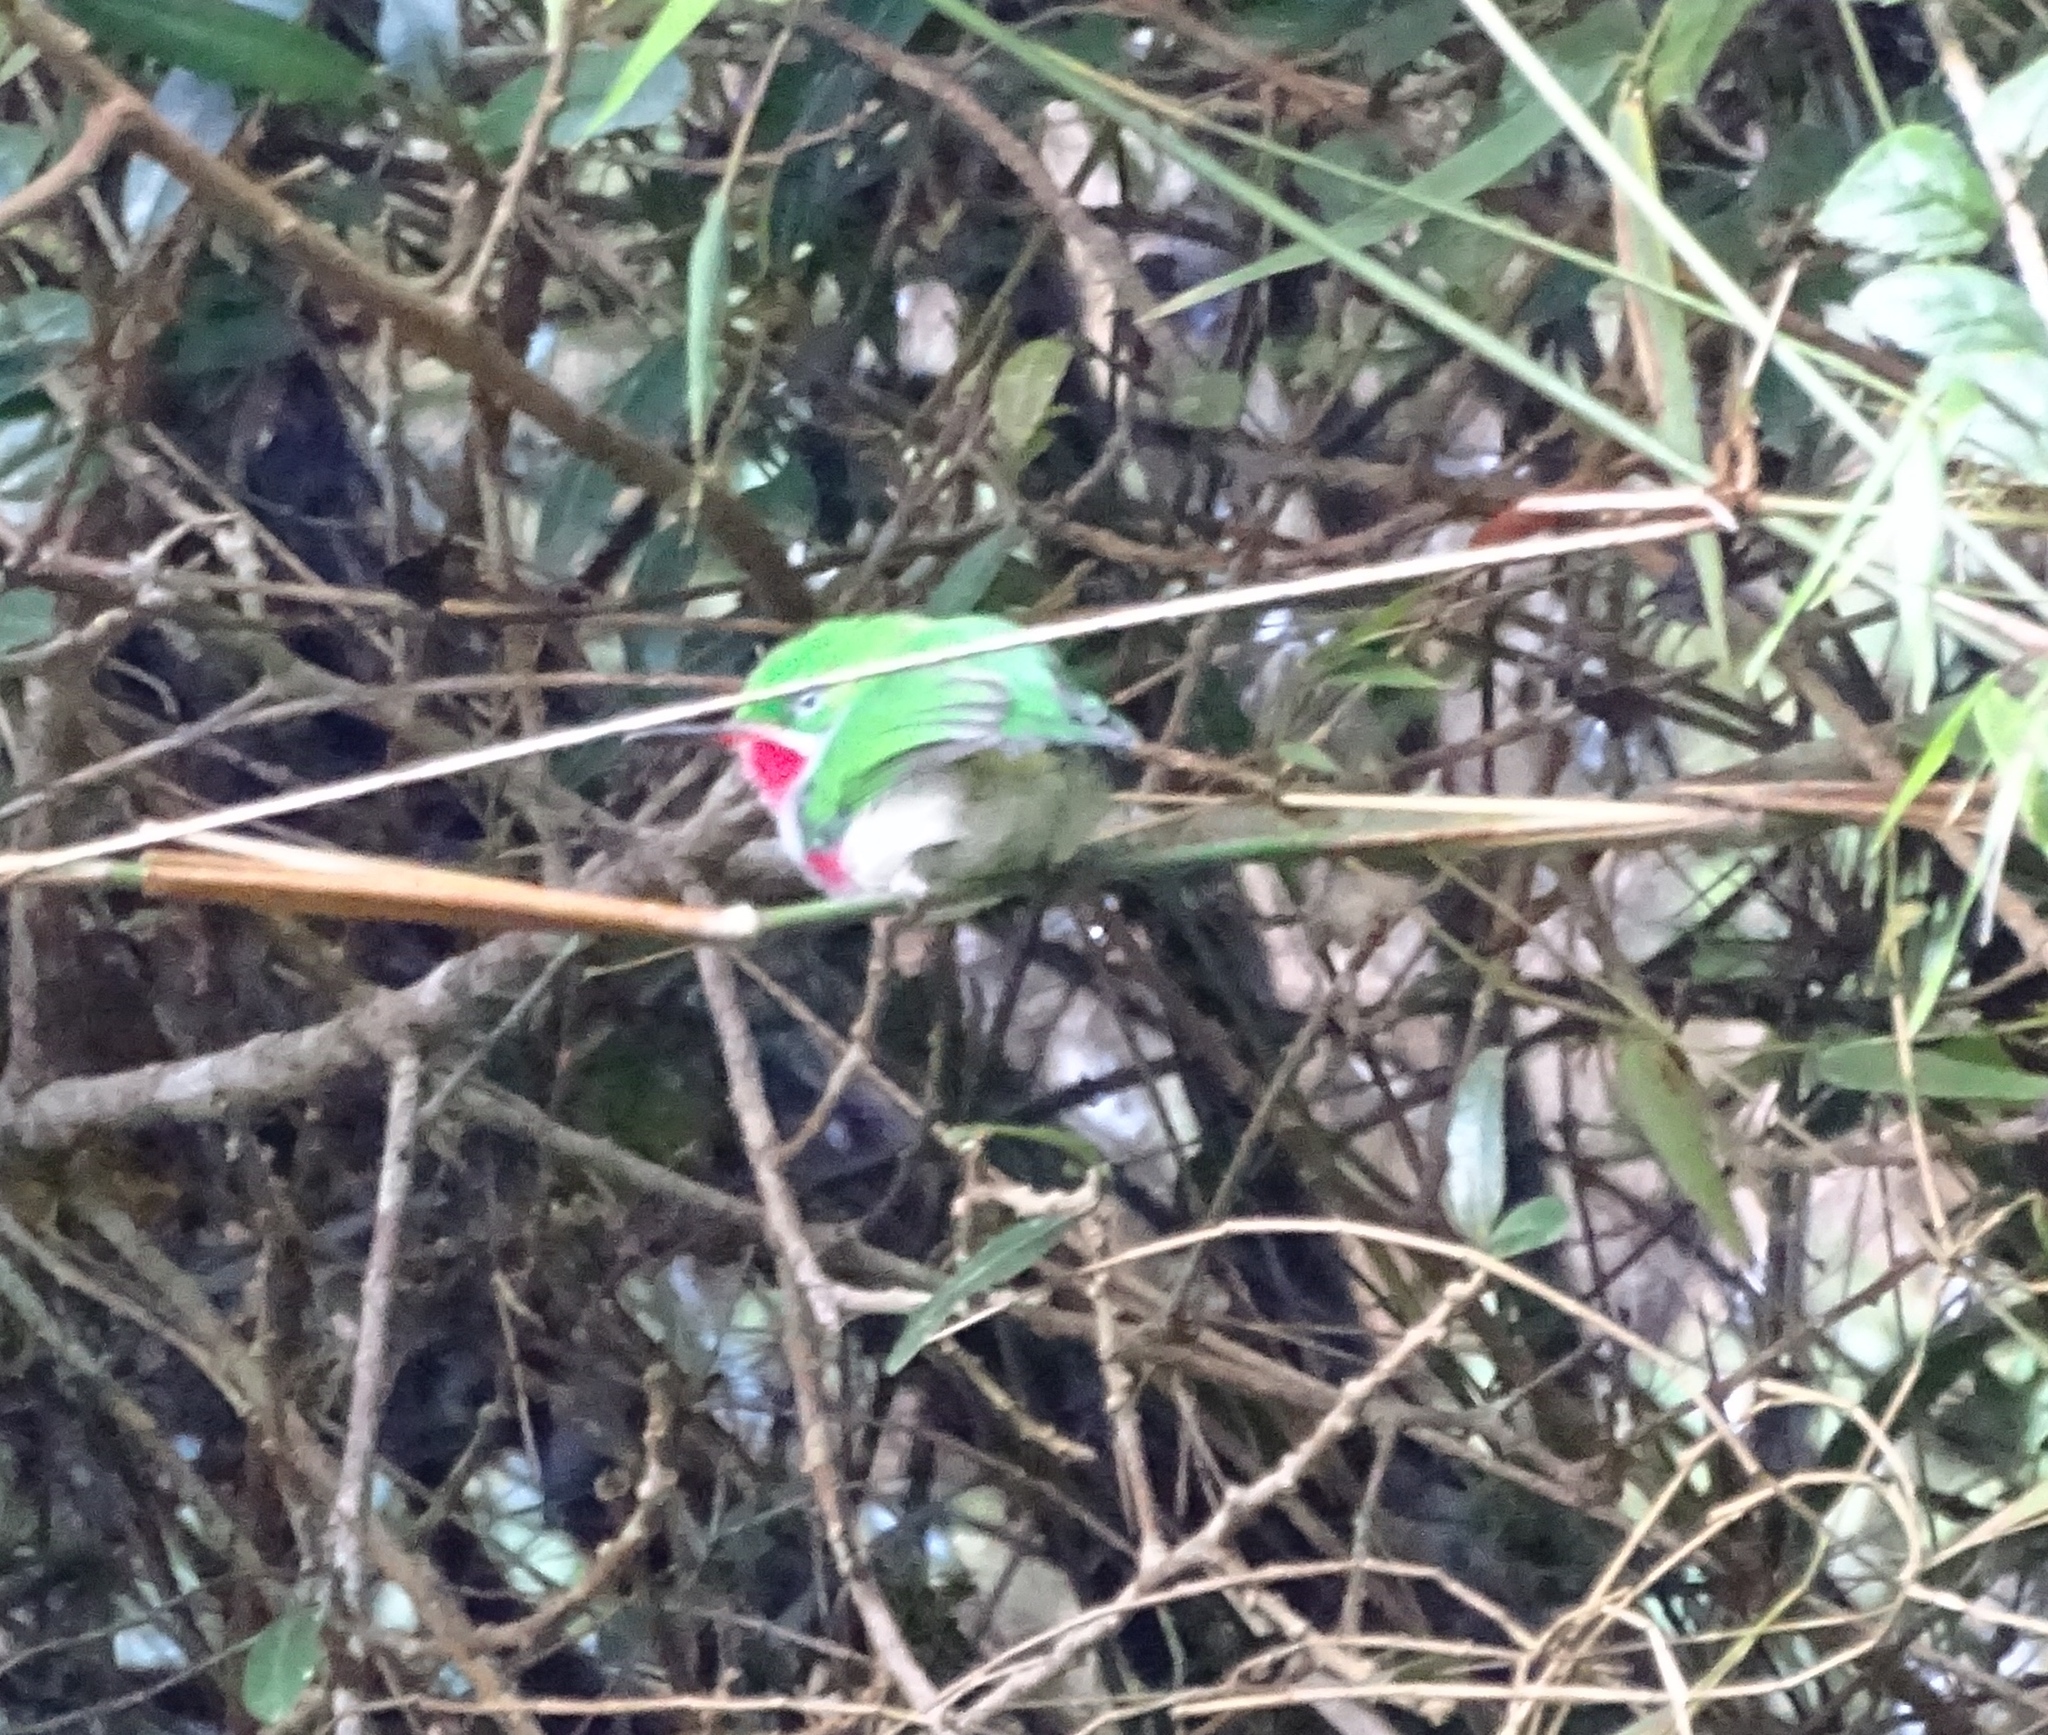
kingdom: Animalia
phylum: Chordata
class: Aves
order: Coraciiformes
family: Todidae
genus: Todus
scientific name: Todus angustirostris
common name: Narrow-billed tody
